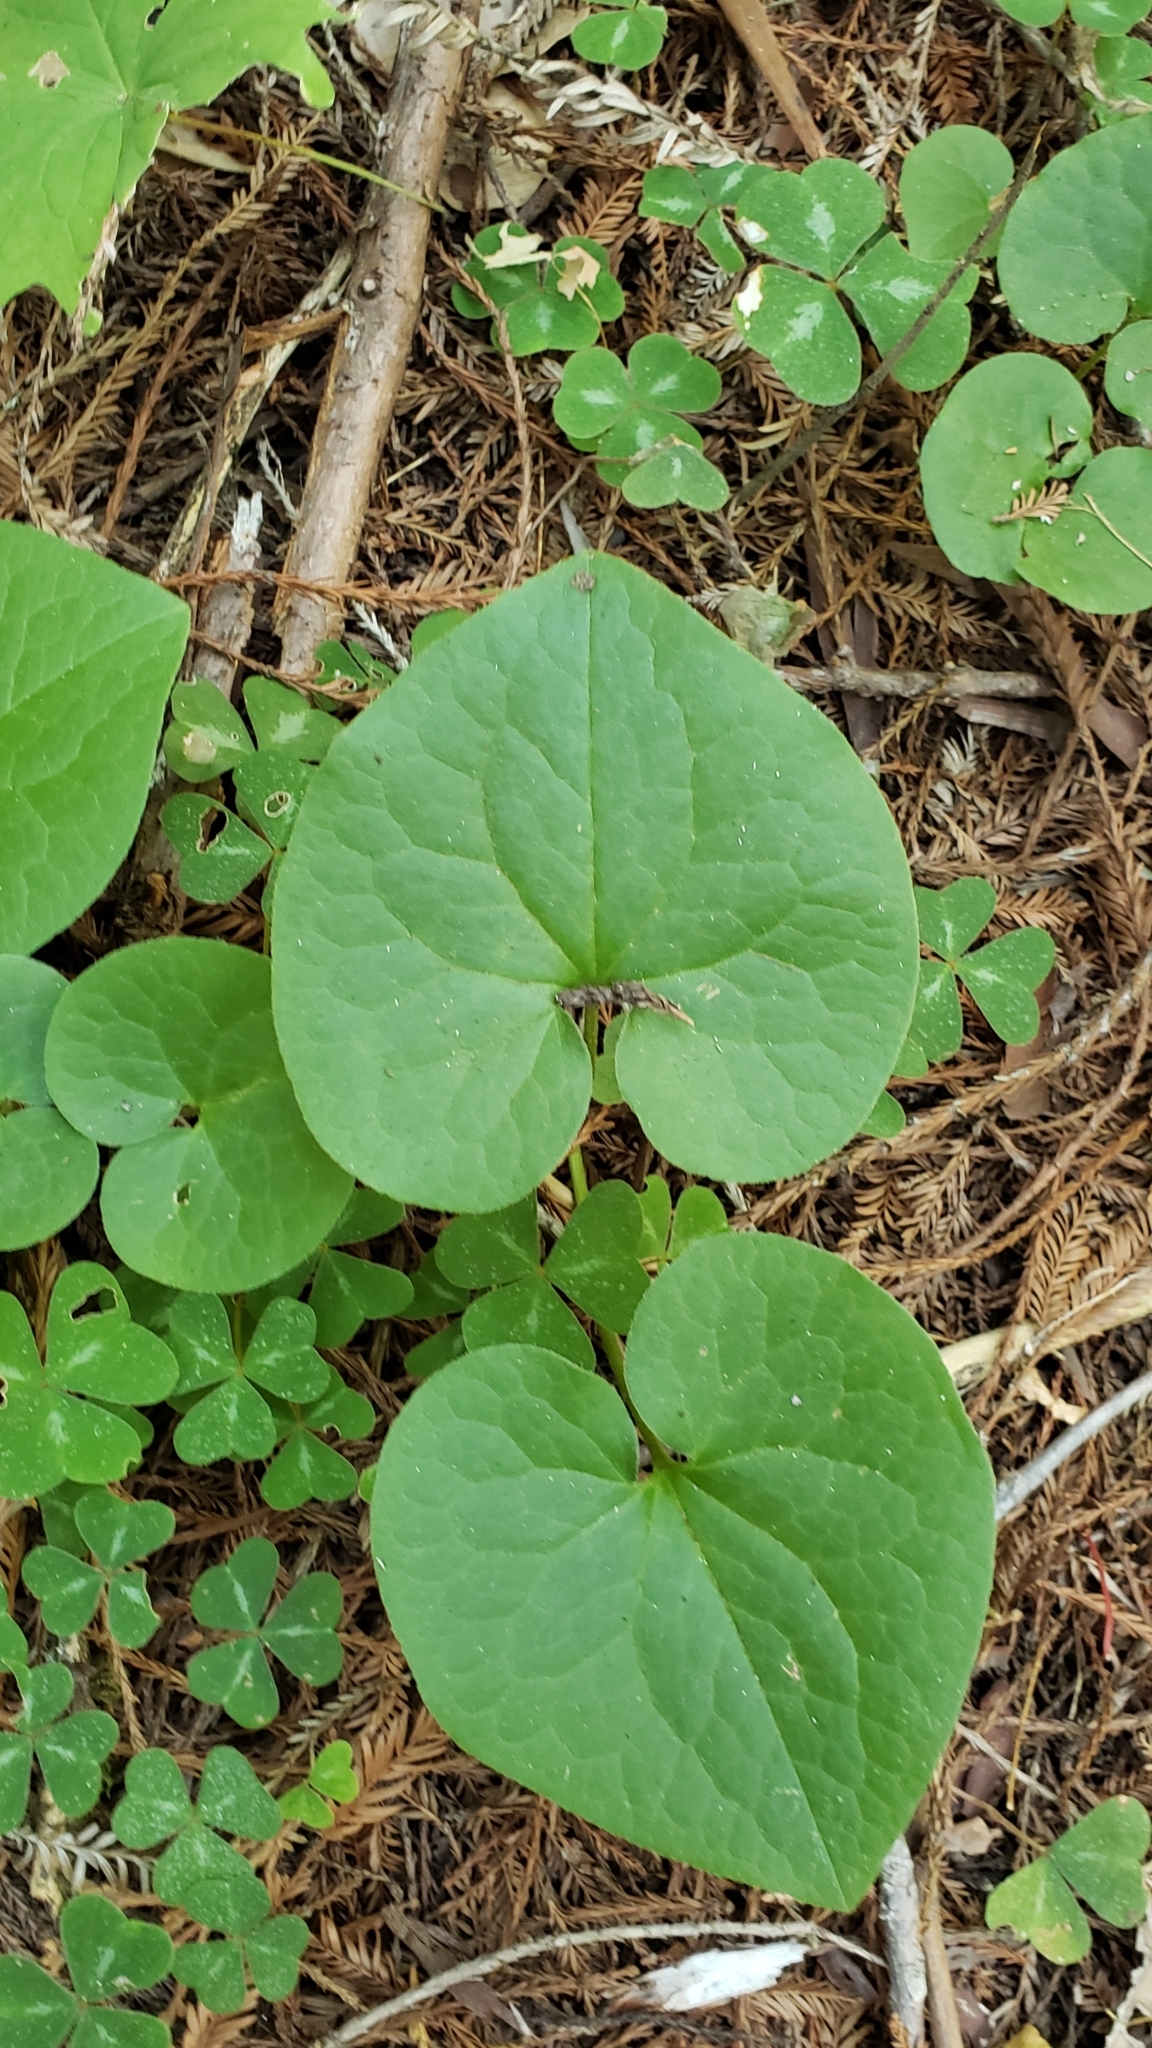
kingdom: Plantae
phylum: Tracheophyta
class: Magnoliopsida
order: Piperales
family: Aristolochiaceae
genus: Asarum
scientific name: Asarum caudatum
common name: Wild ginger
